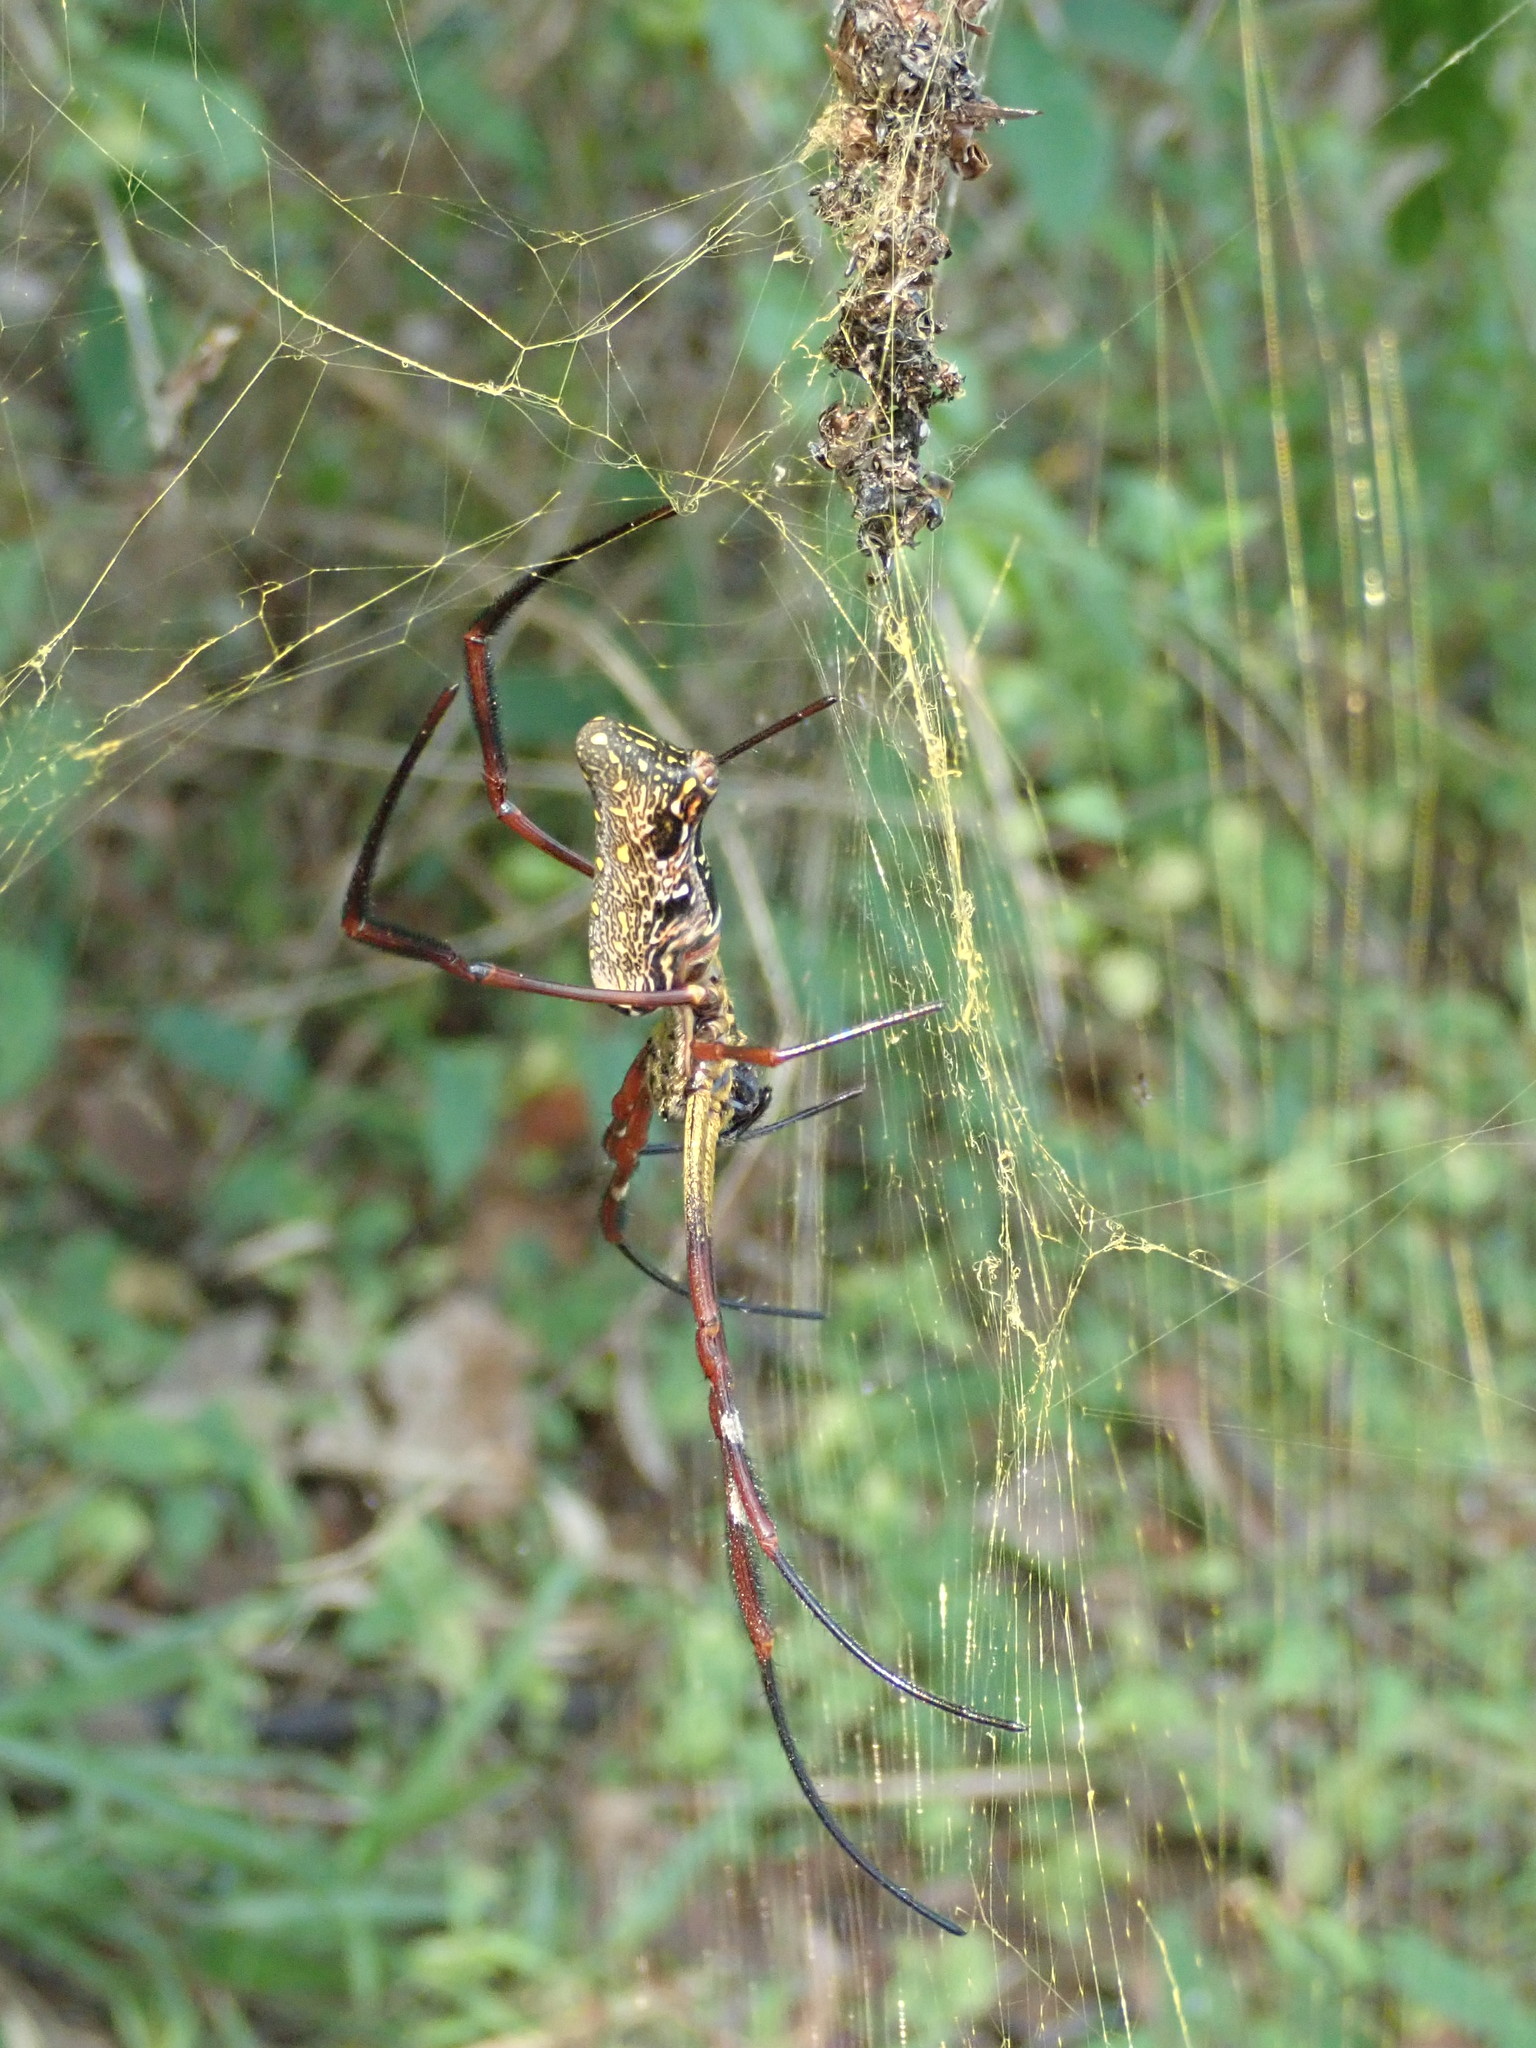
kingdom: Animalia
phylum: Arthropoda
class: Arachnida
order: Araneae
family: Araneidae
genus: Trichonephila
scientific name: Trichonephila antipodiana
